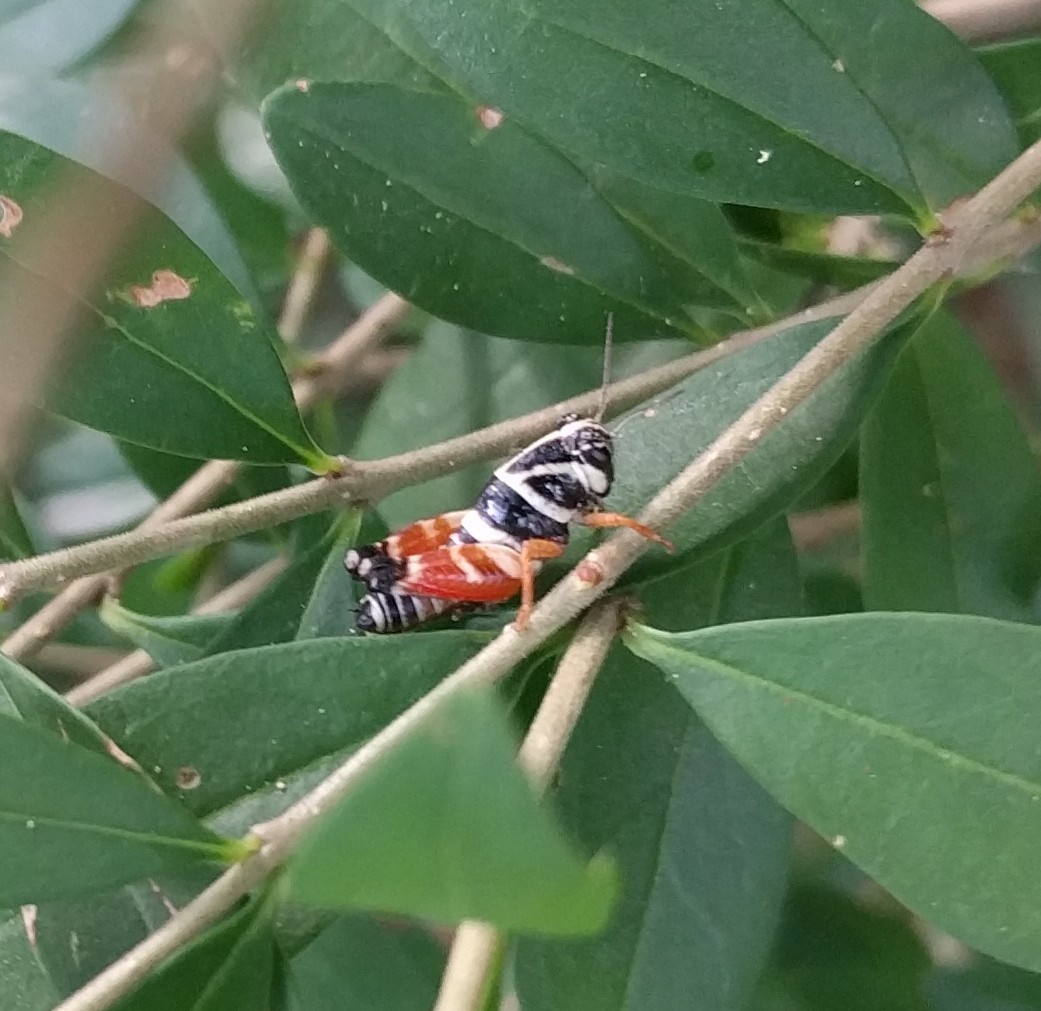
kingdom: Animalia
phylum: Arthropoda
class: Insecta
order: Orthoptera
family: Acrididae
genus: Aidemona
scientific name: Aidemona azteca
